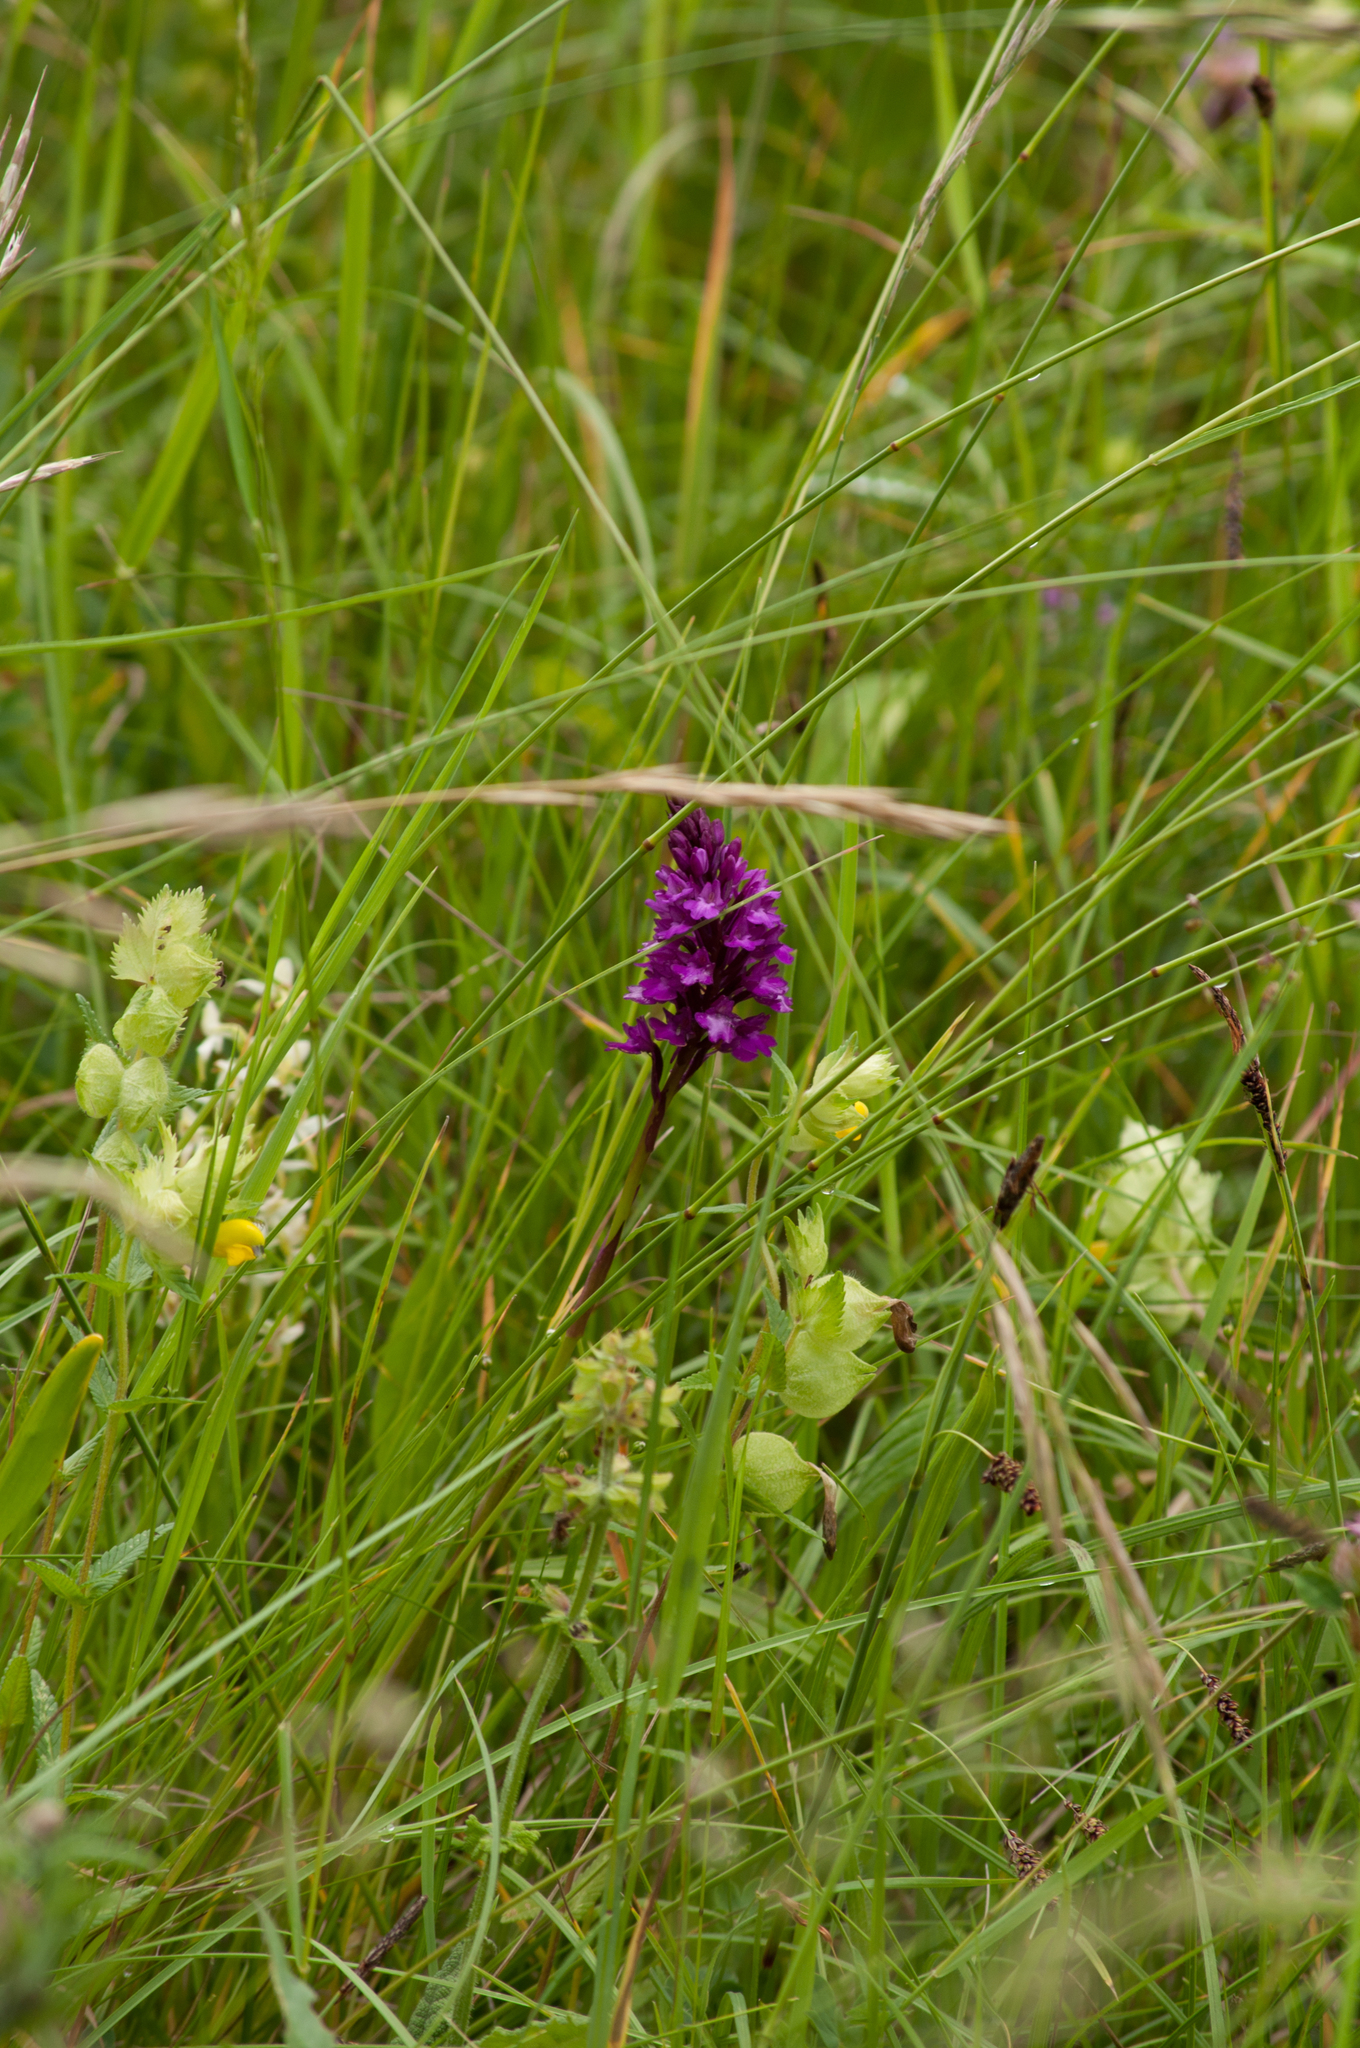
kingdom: Plantae
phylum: Tracheophyta
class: Liliopsida
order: Asparagales
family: Orchidaceae
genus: Anacamptis
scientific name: Anacamptis pyramidalis
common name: Pyramidal orchid
